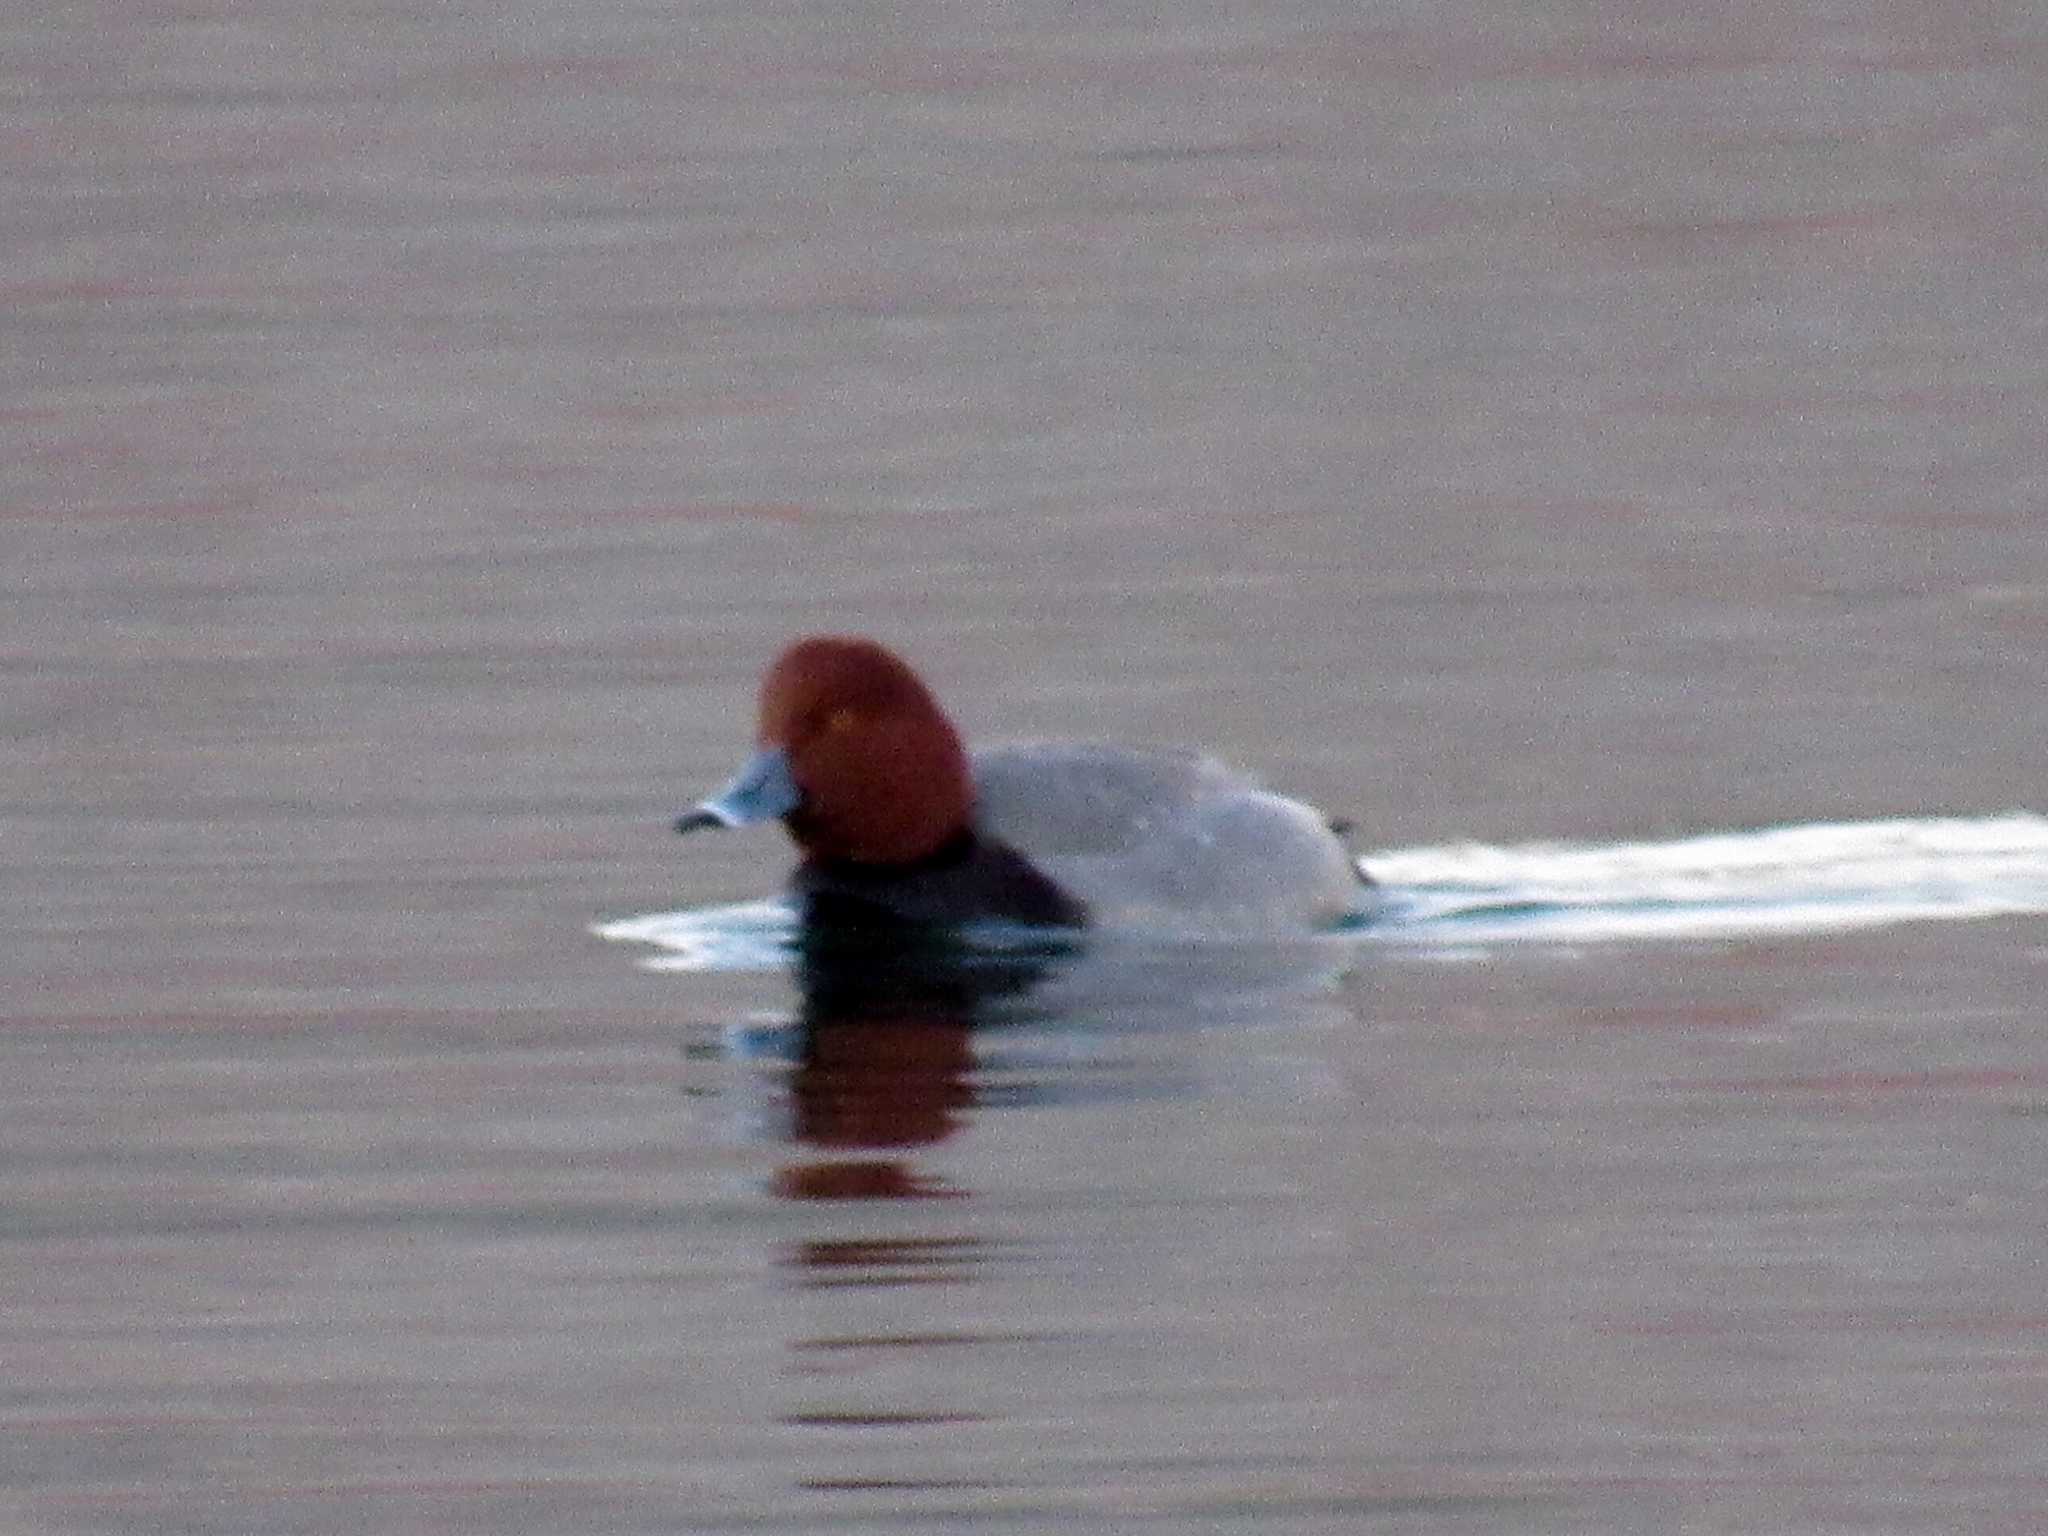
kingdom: Animalia
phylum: Chordata
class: Aves
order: Anseriformes
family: Anatidae
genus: Aythya
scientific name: Aythya americana
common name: Redhead
